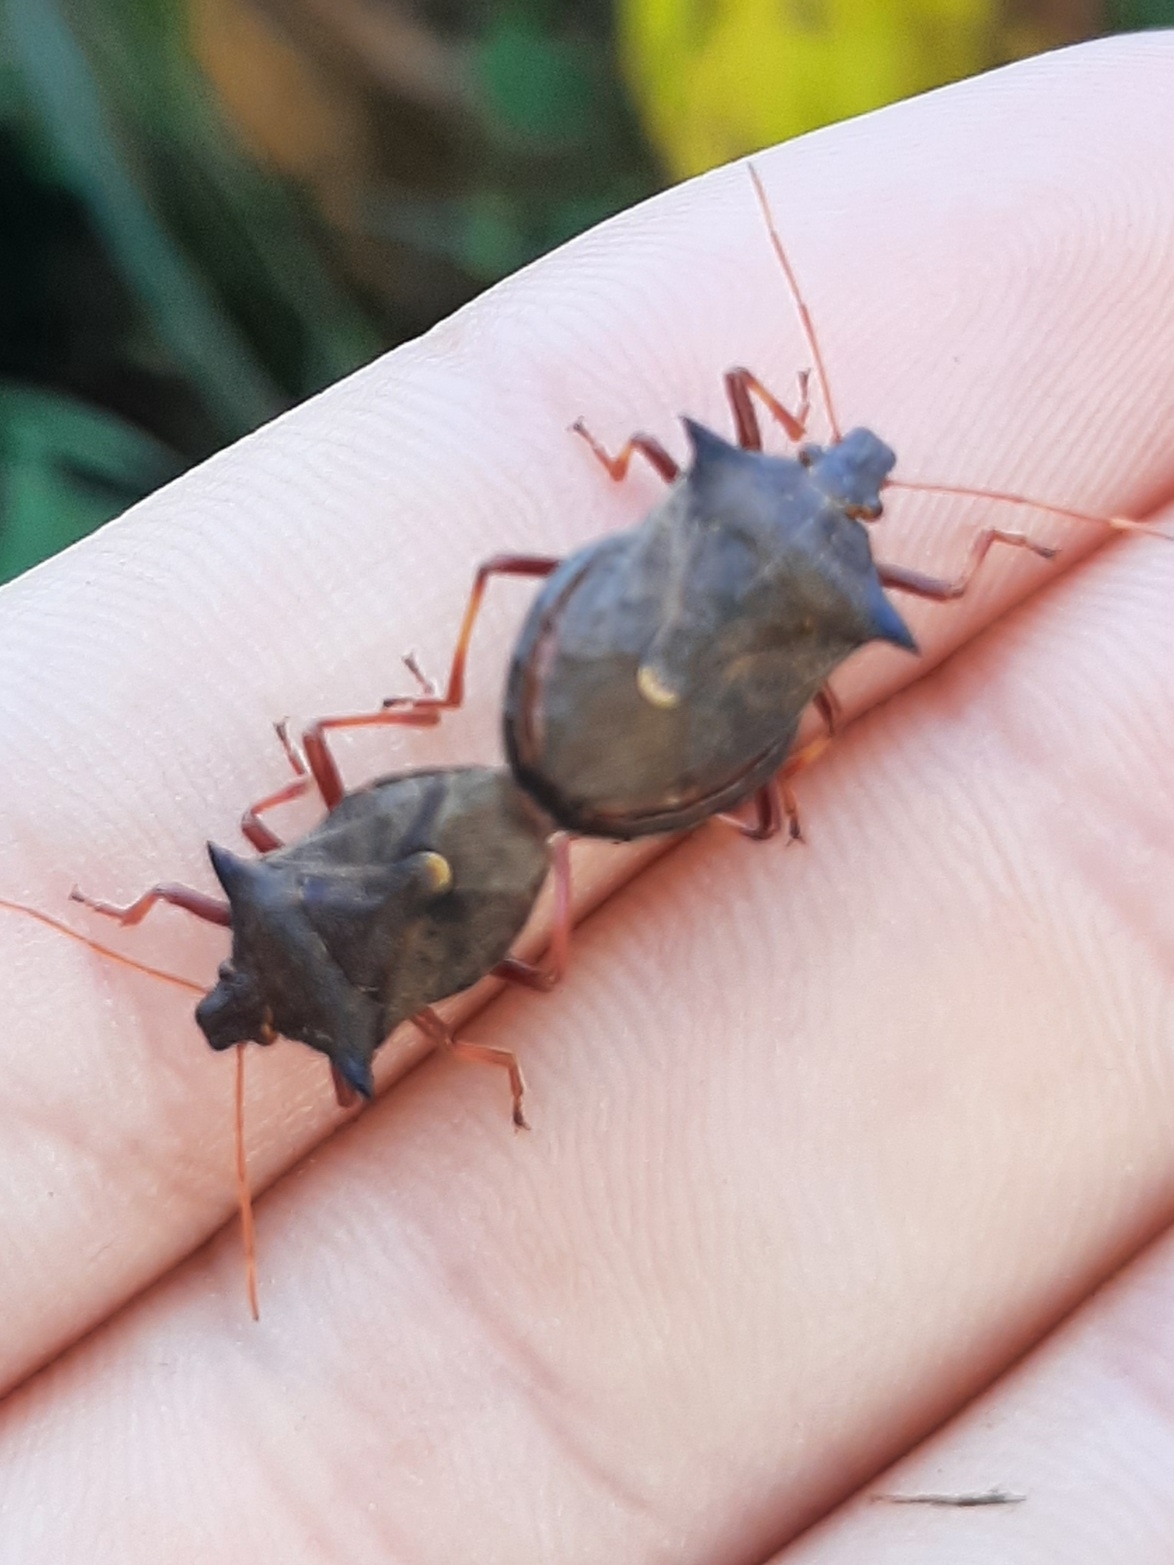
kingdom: Animalia
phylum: Arthropoda
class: Insecta
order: Hemiptera
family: Pentatomidae
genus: Picromerus
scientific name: Picromerus bidens
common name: Spiked shieldbug
